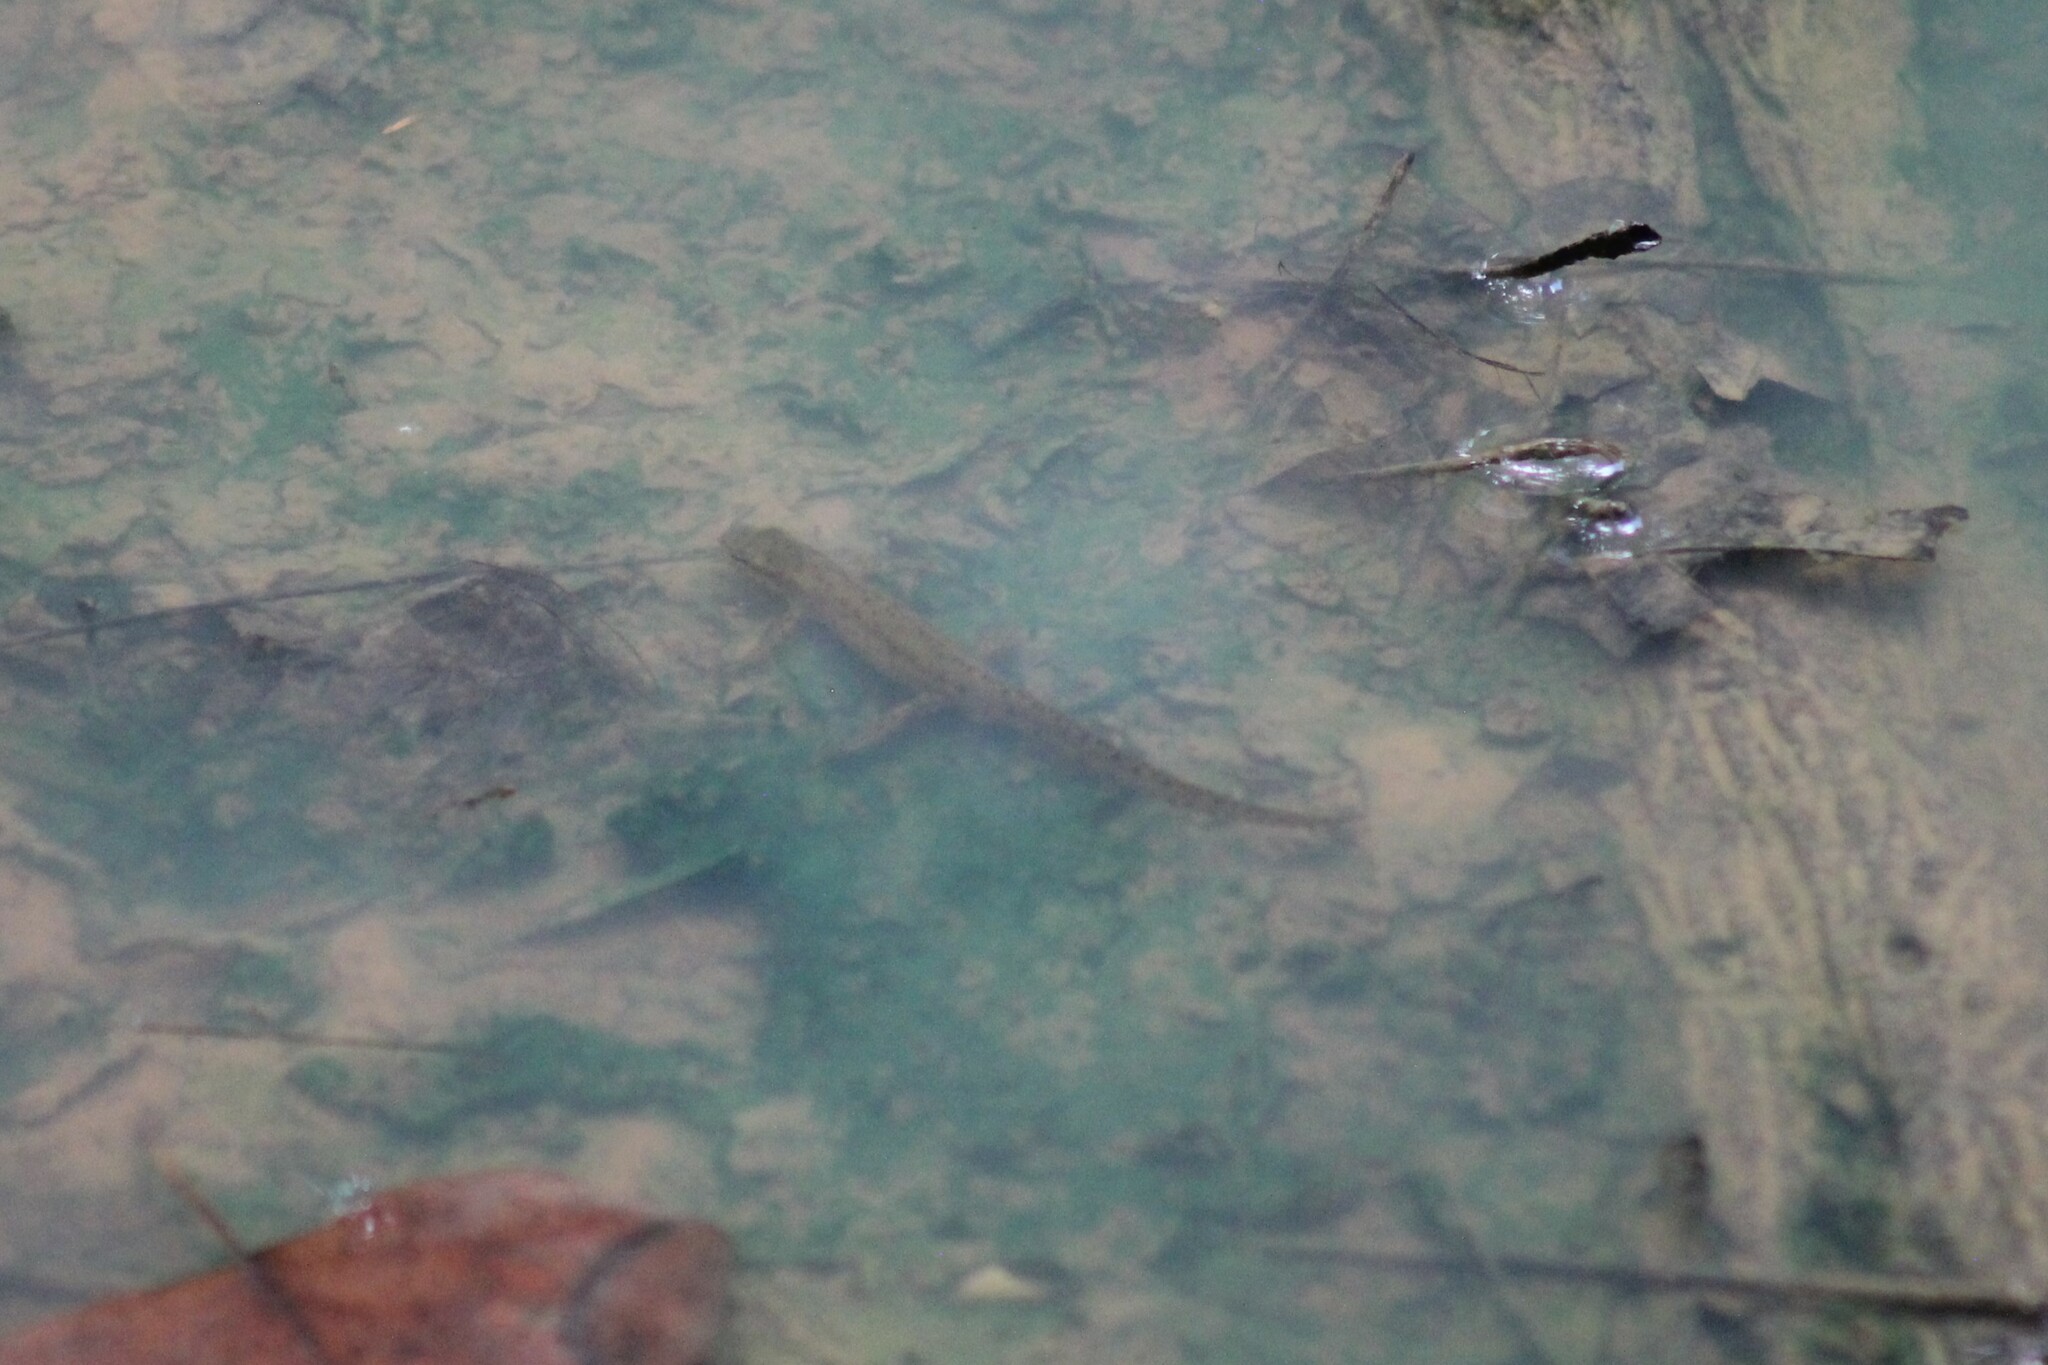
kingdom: Animalia
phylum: Chordata
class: Amphibia
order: Caudata
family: Salamandridae
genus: Notophthalmus
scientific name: Notophthalmus viridescens
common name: Eastern newt
